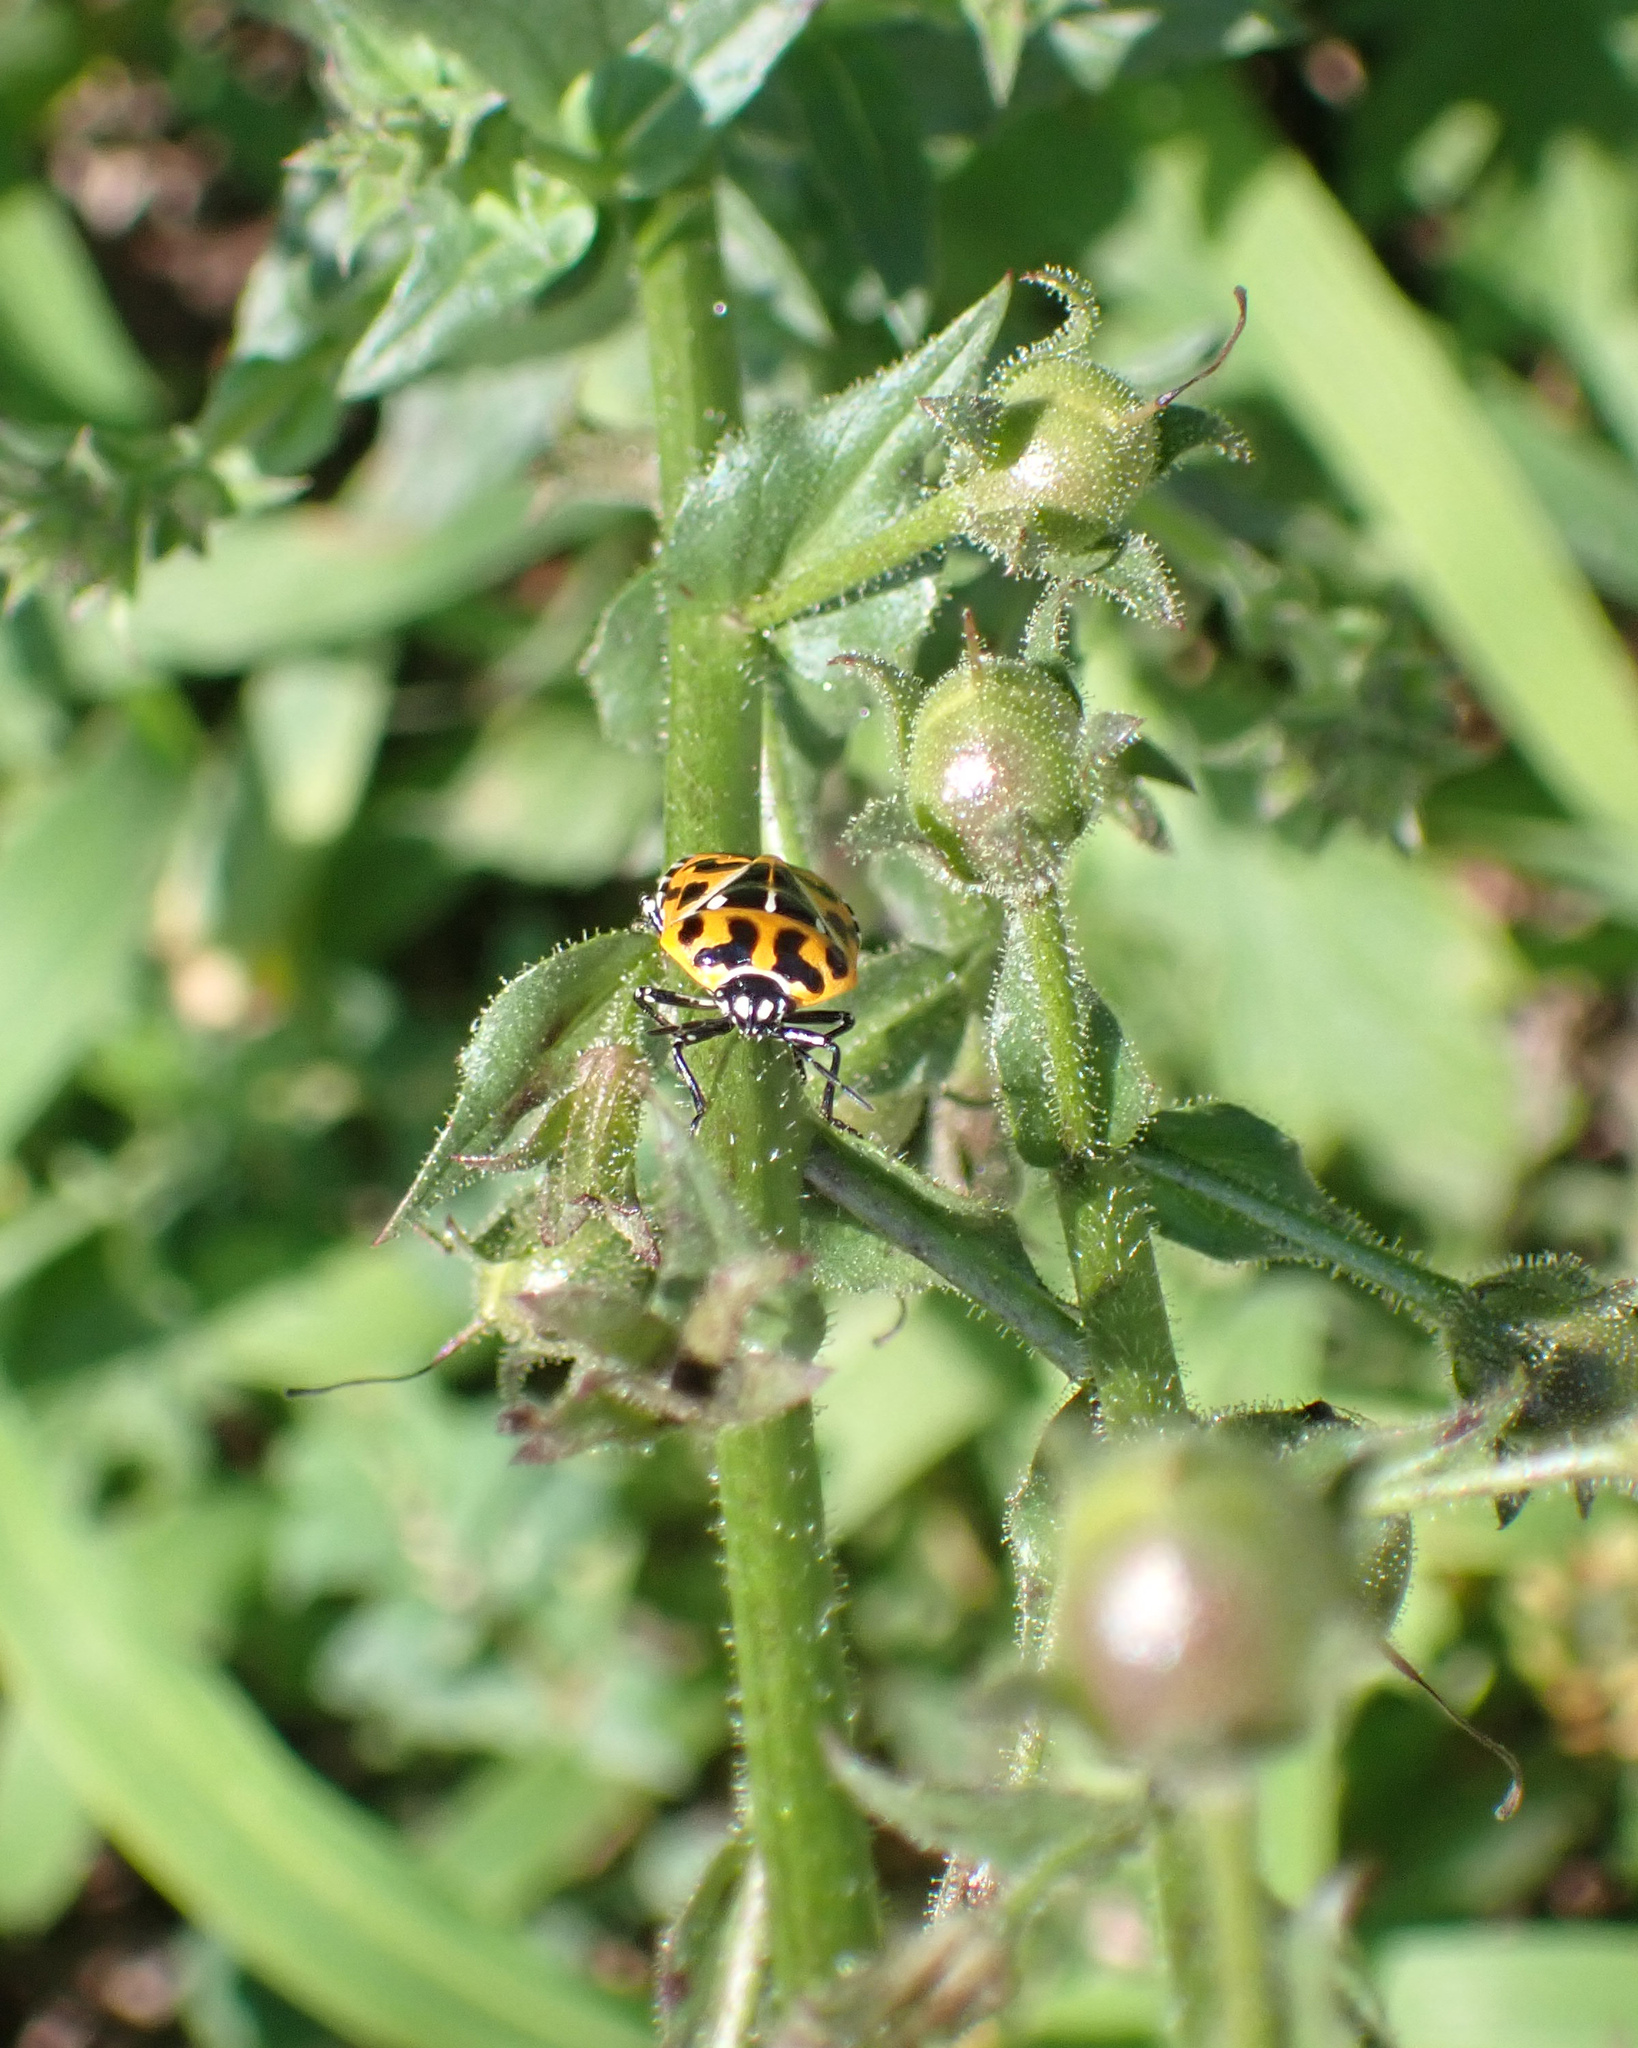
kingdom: Animalia
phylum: Arthropoda
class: Insecta
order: Hemiptera
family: Pentatomidae
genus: Murgantia
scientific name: Murgantia histrionica
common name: Harlequin bug
